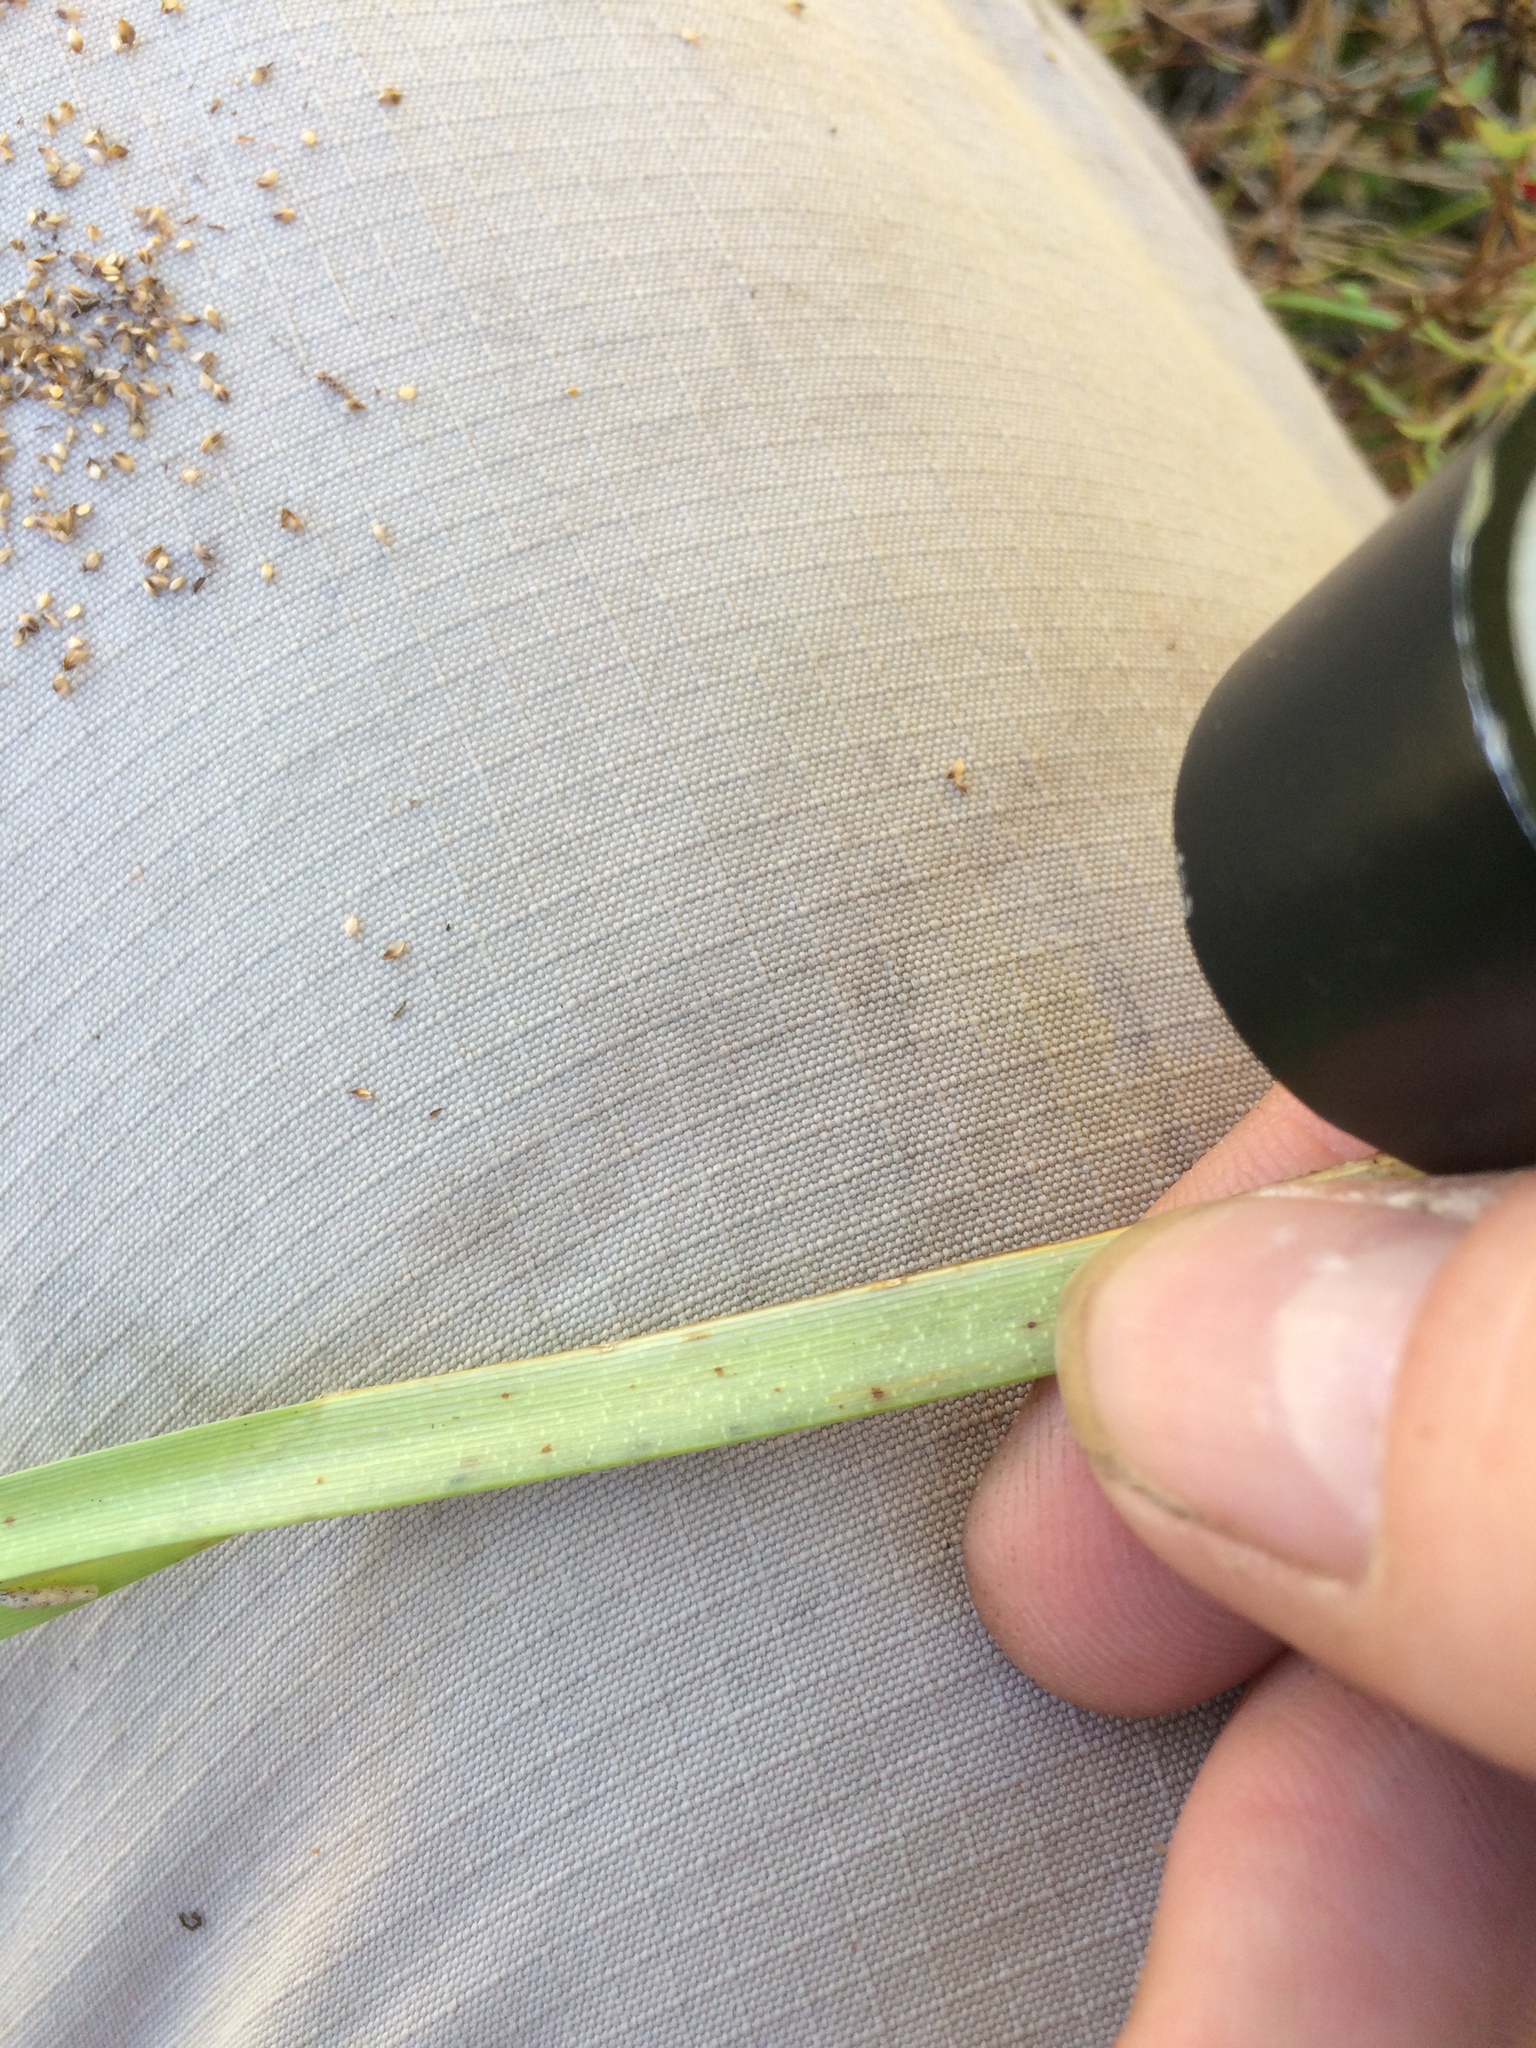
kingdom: Plantae
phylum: Tracheophyta
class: Liliopsida
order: Poales
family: Cyperaceae
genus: Scirpus
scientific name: Scirpus atrovirens
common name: Black bulrush
